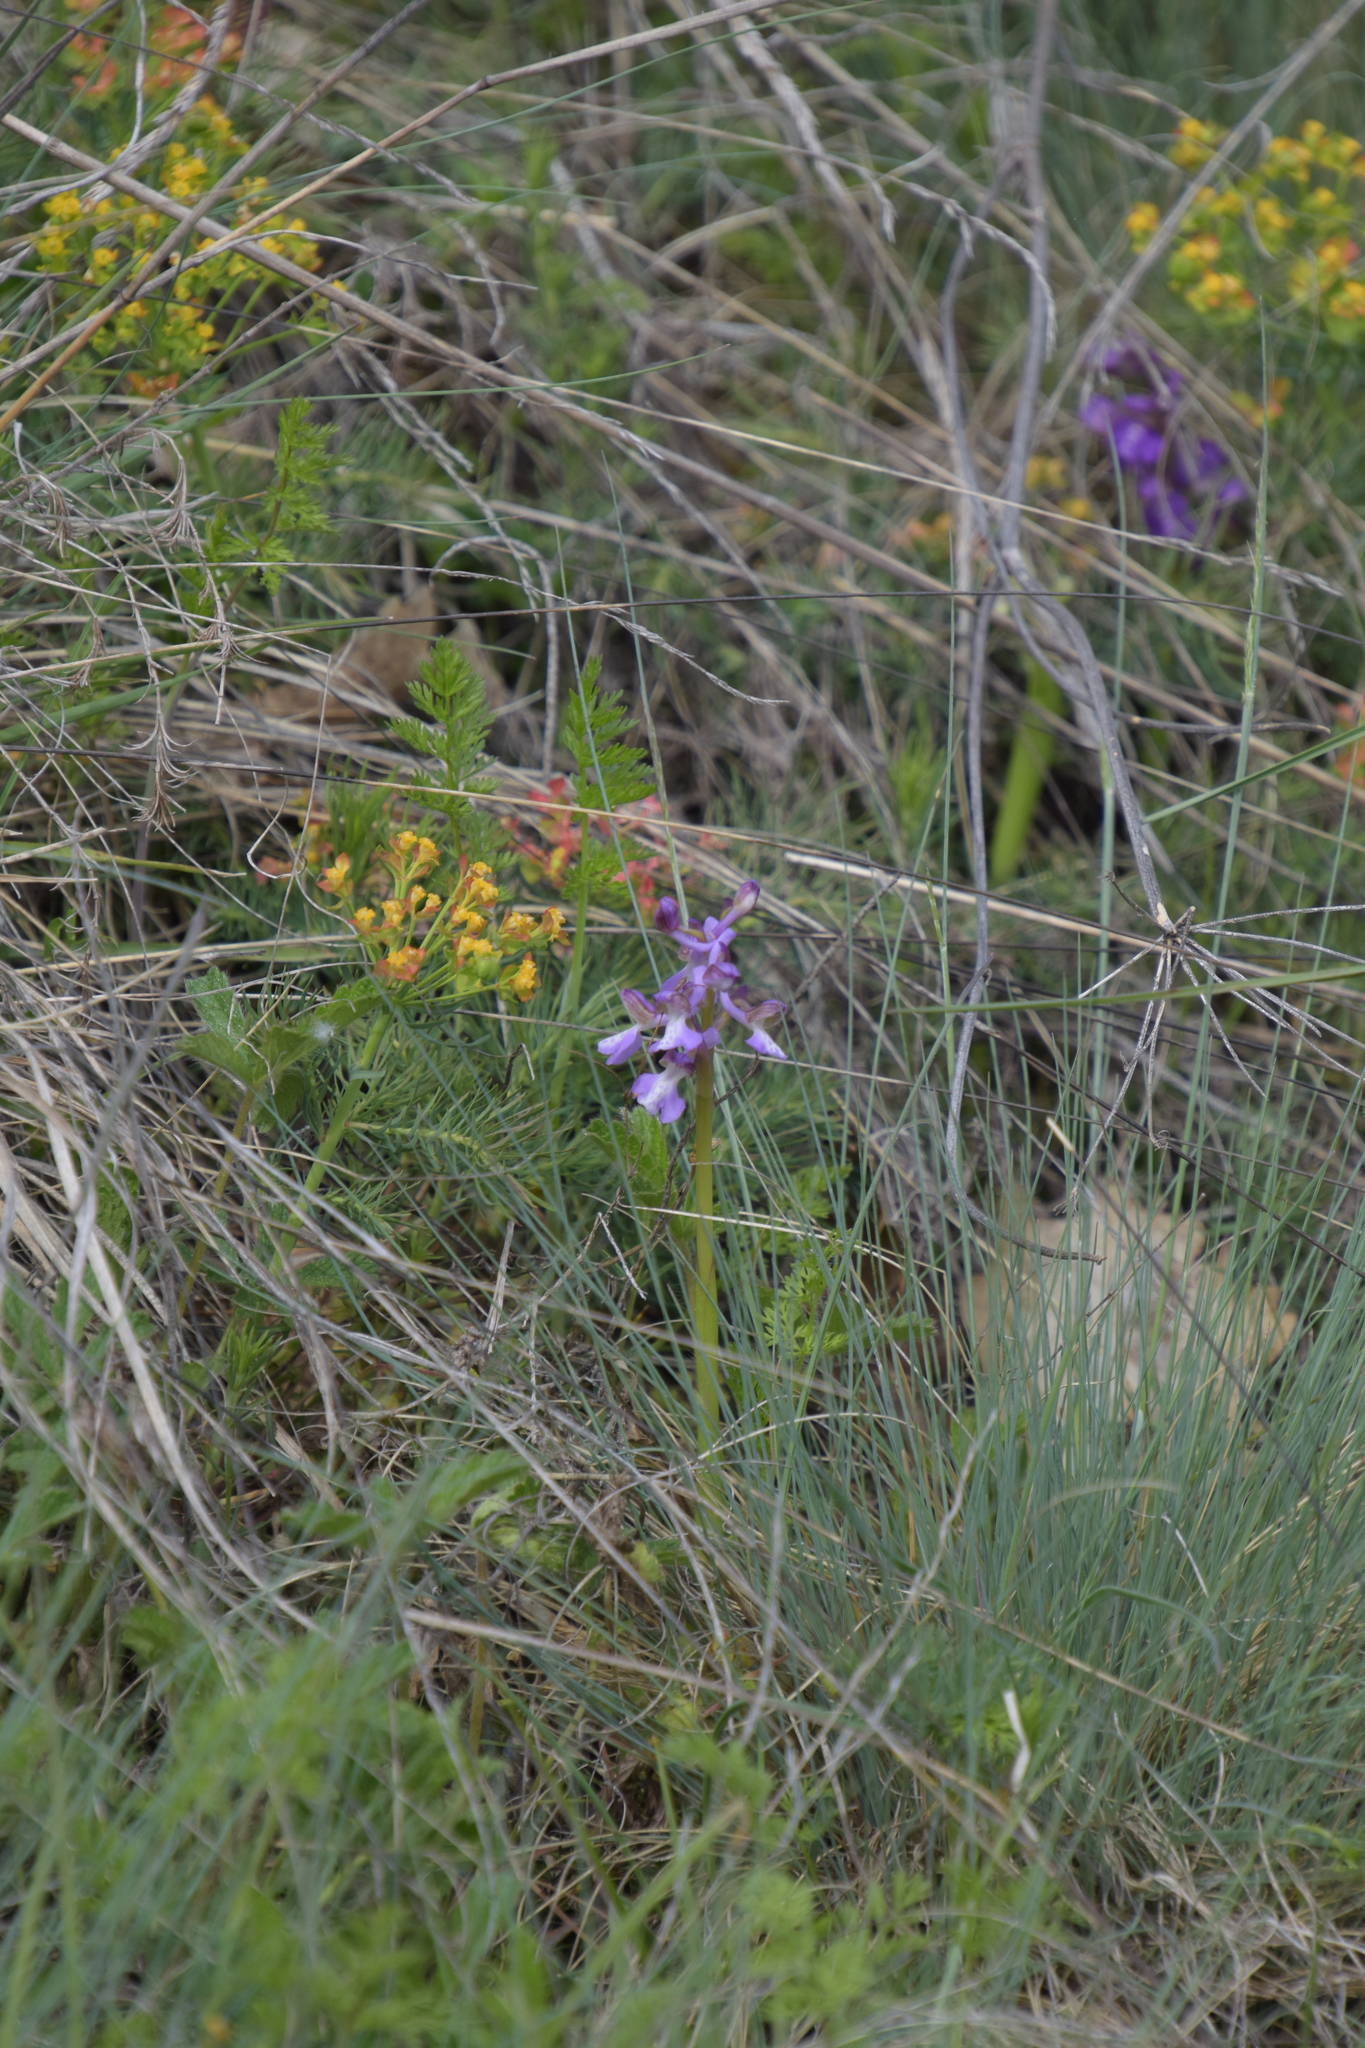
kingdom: Plantae
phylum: Tracheophyta
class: Liliopsida
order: Asparagales
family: Orchidaceae
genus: Anacamptis
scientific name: Anacamptis morio
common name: Green-winged orchid
